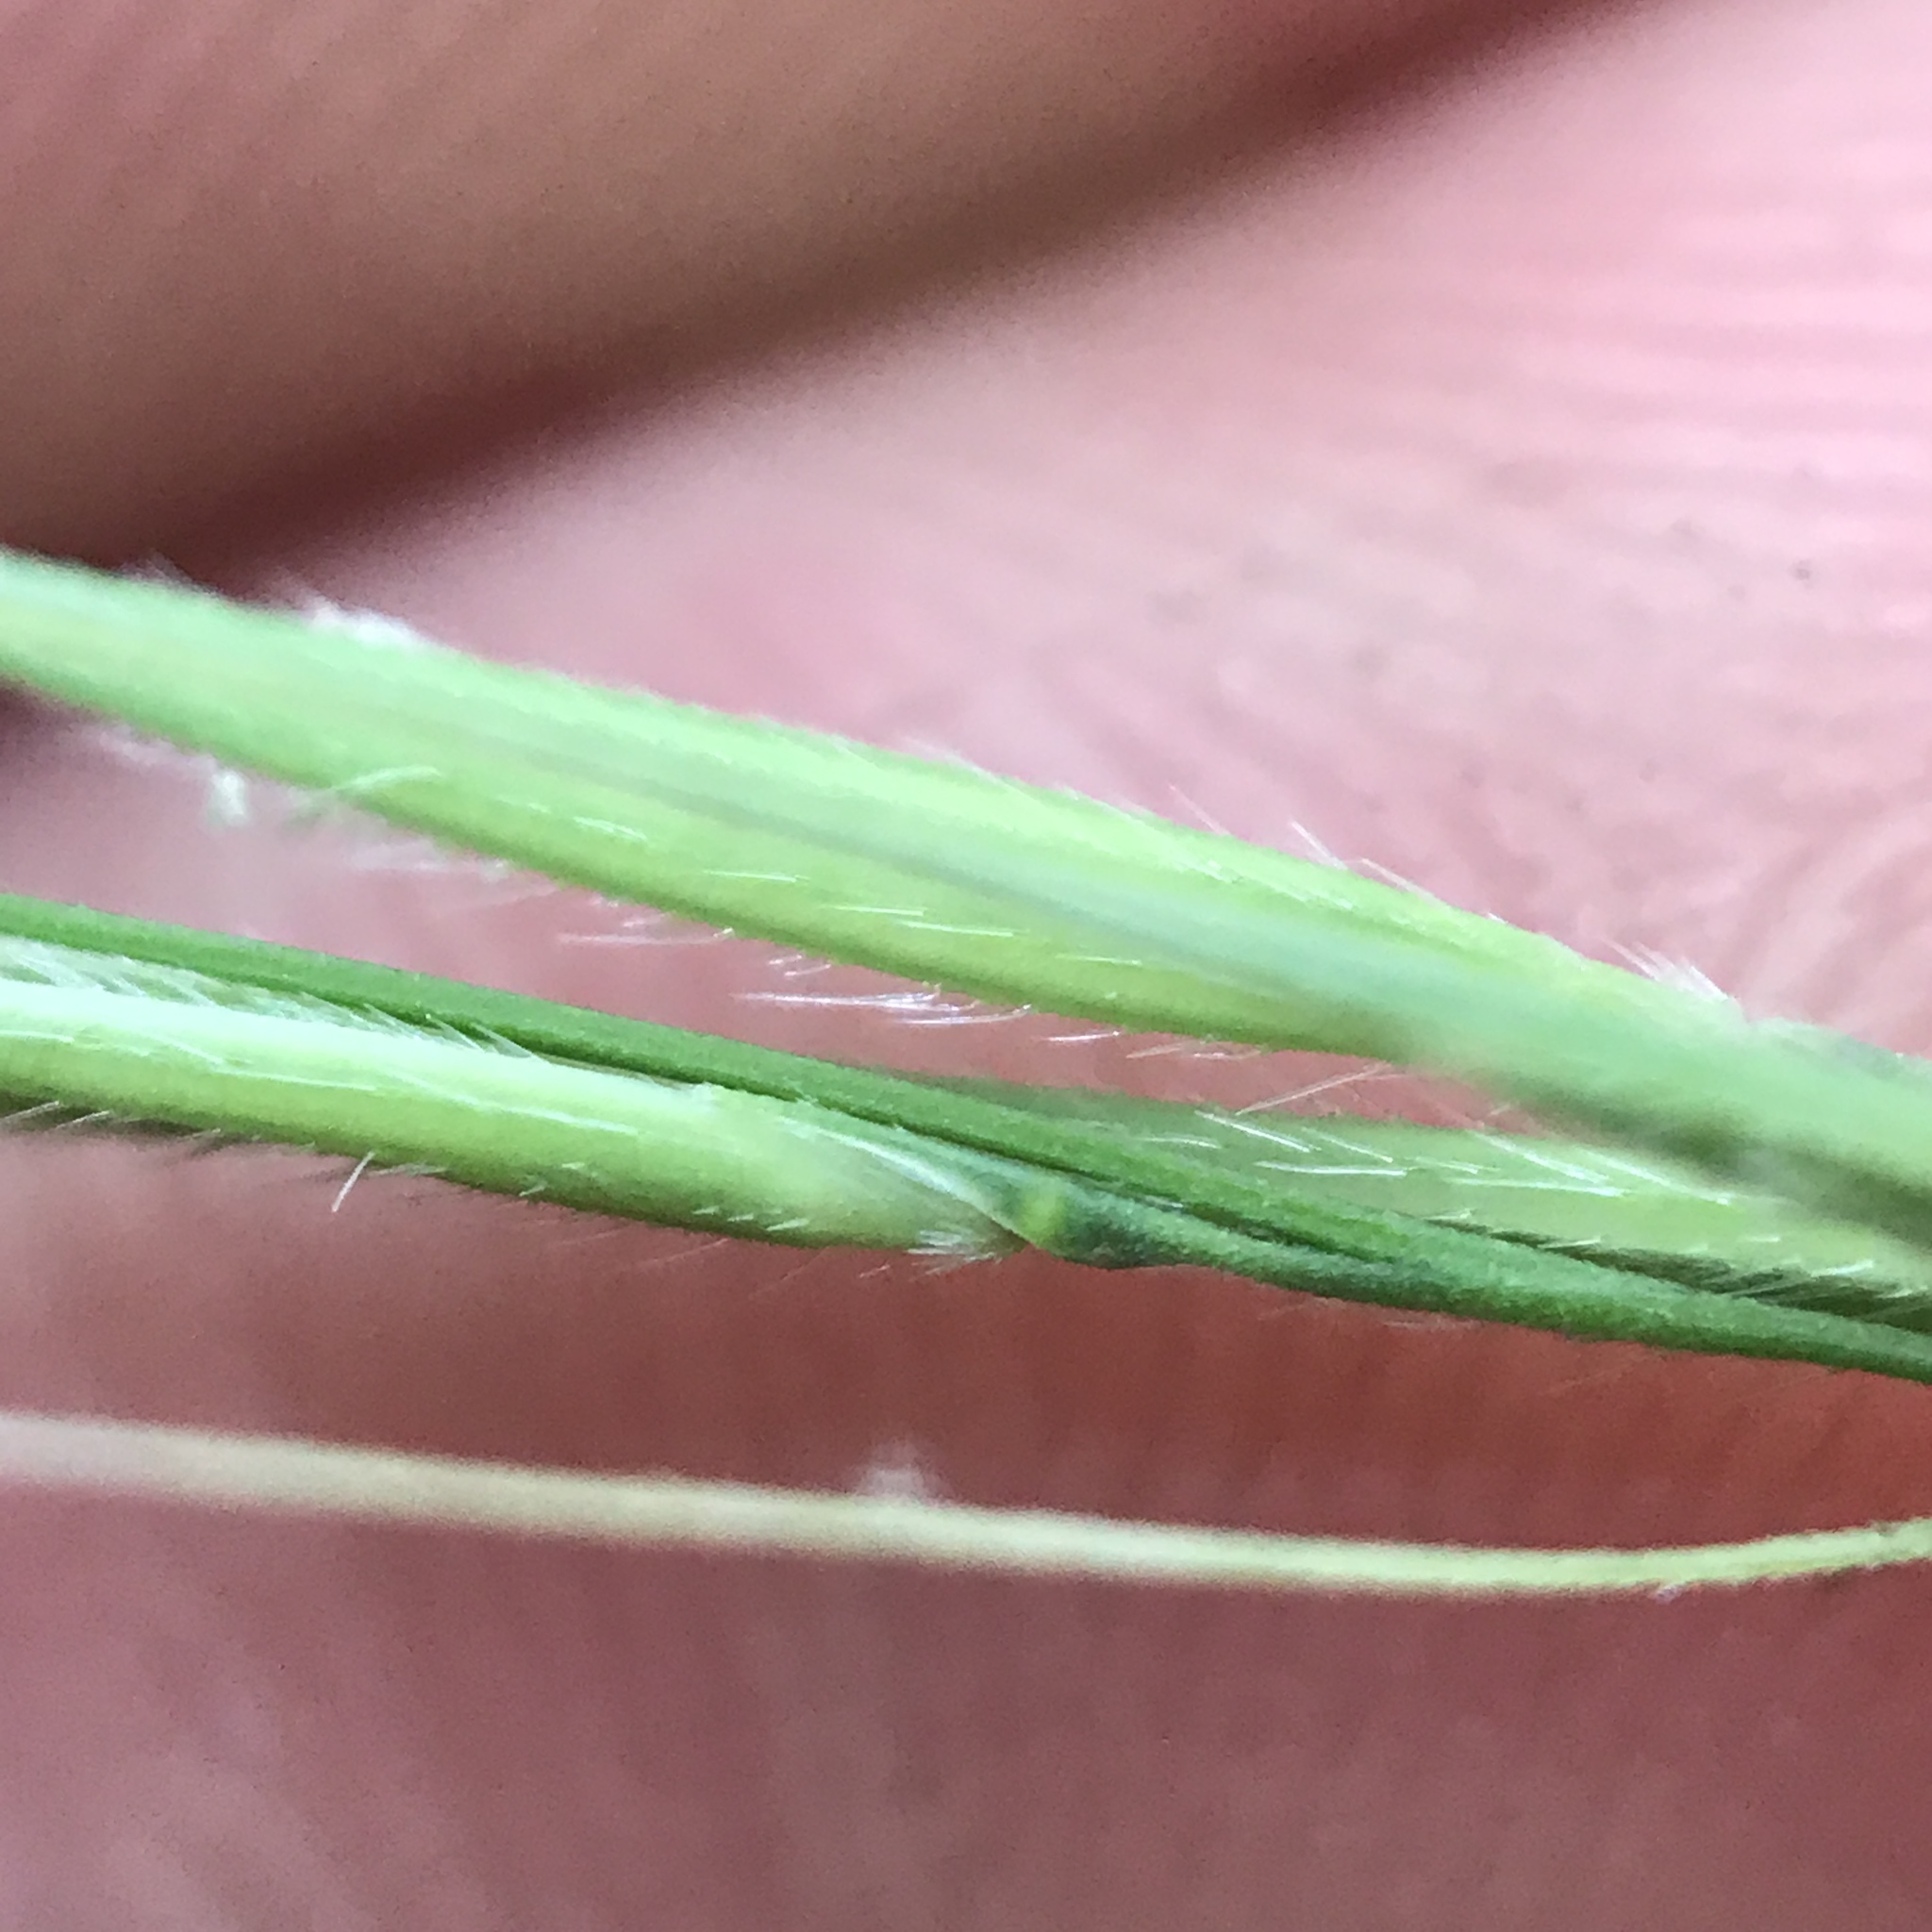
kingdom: Plantae
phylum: Tracheophyta
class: Liliopsida
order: Poales
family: Poaceae
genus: Brachyelytrum
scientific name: Brachyelytrum erectum
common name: Bearded shorthusk
